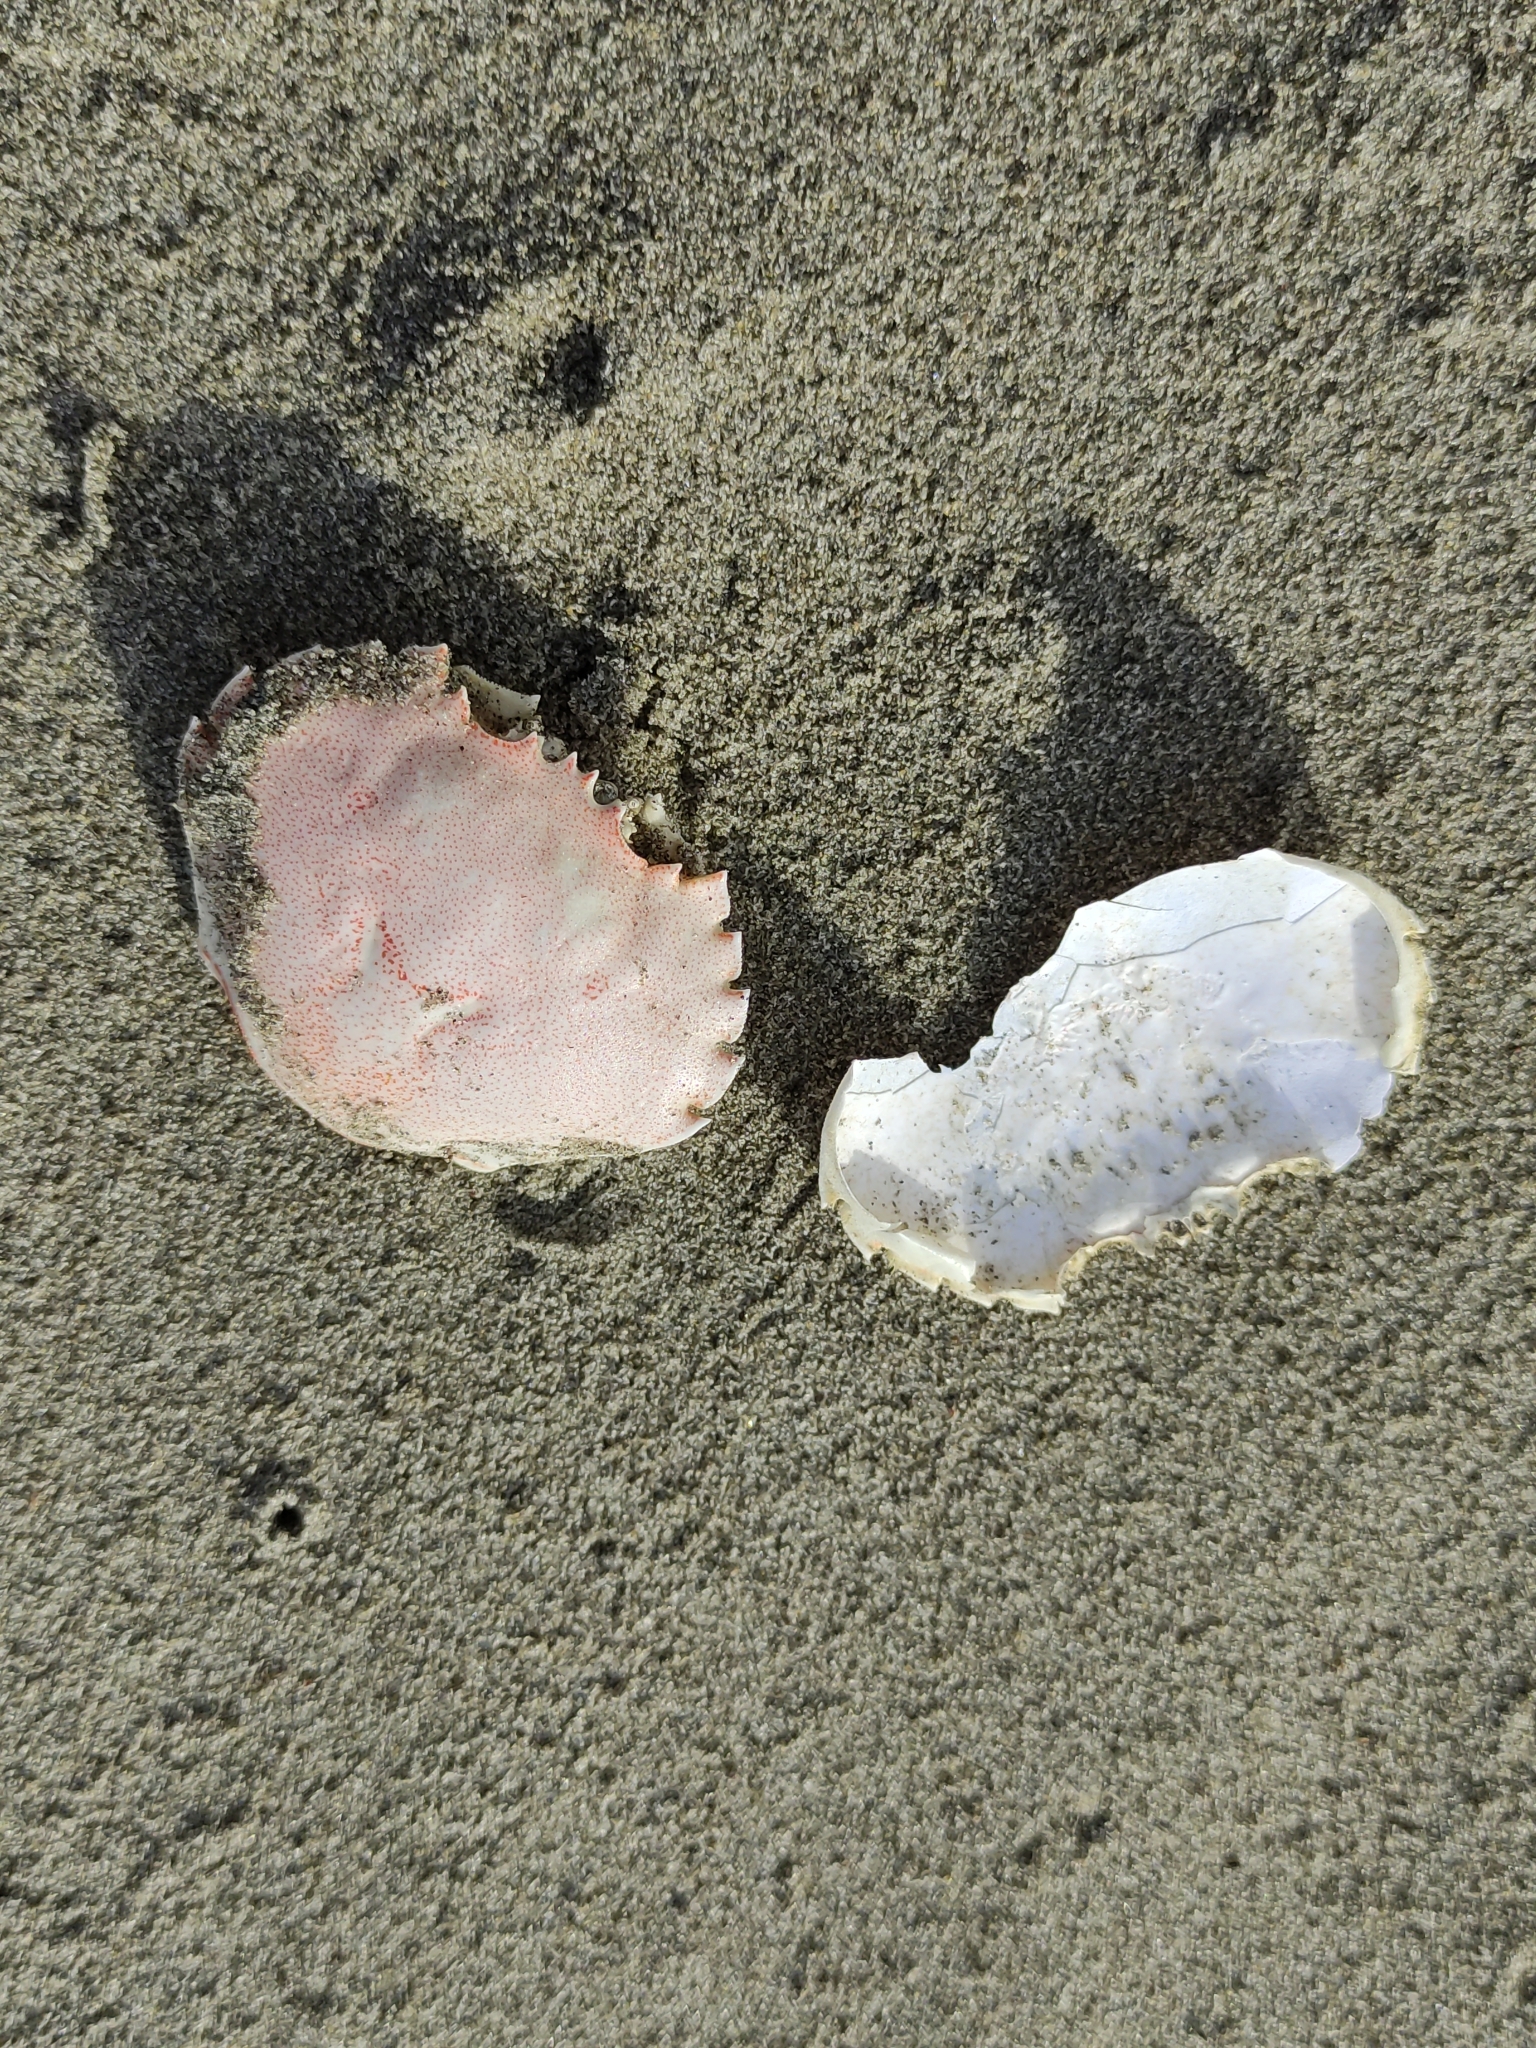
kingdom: Animalia
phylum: Arthropoda
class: Malacostraca
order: Decapoda
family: Ovalipidae
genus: Ovalipes
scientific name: Ovalipes catharus
